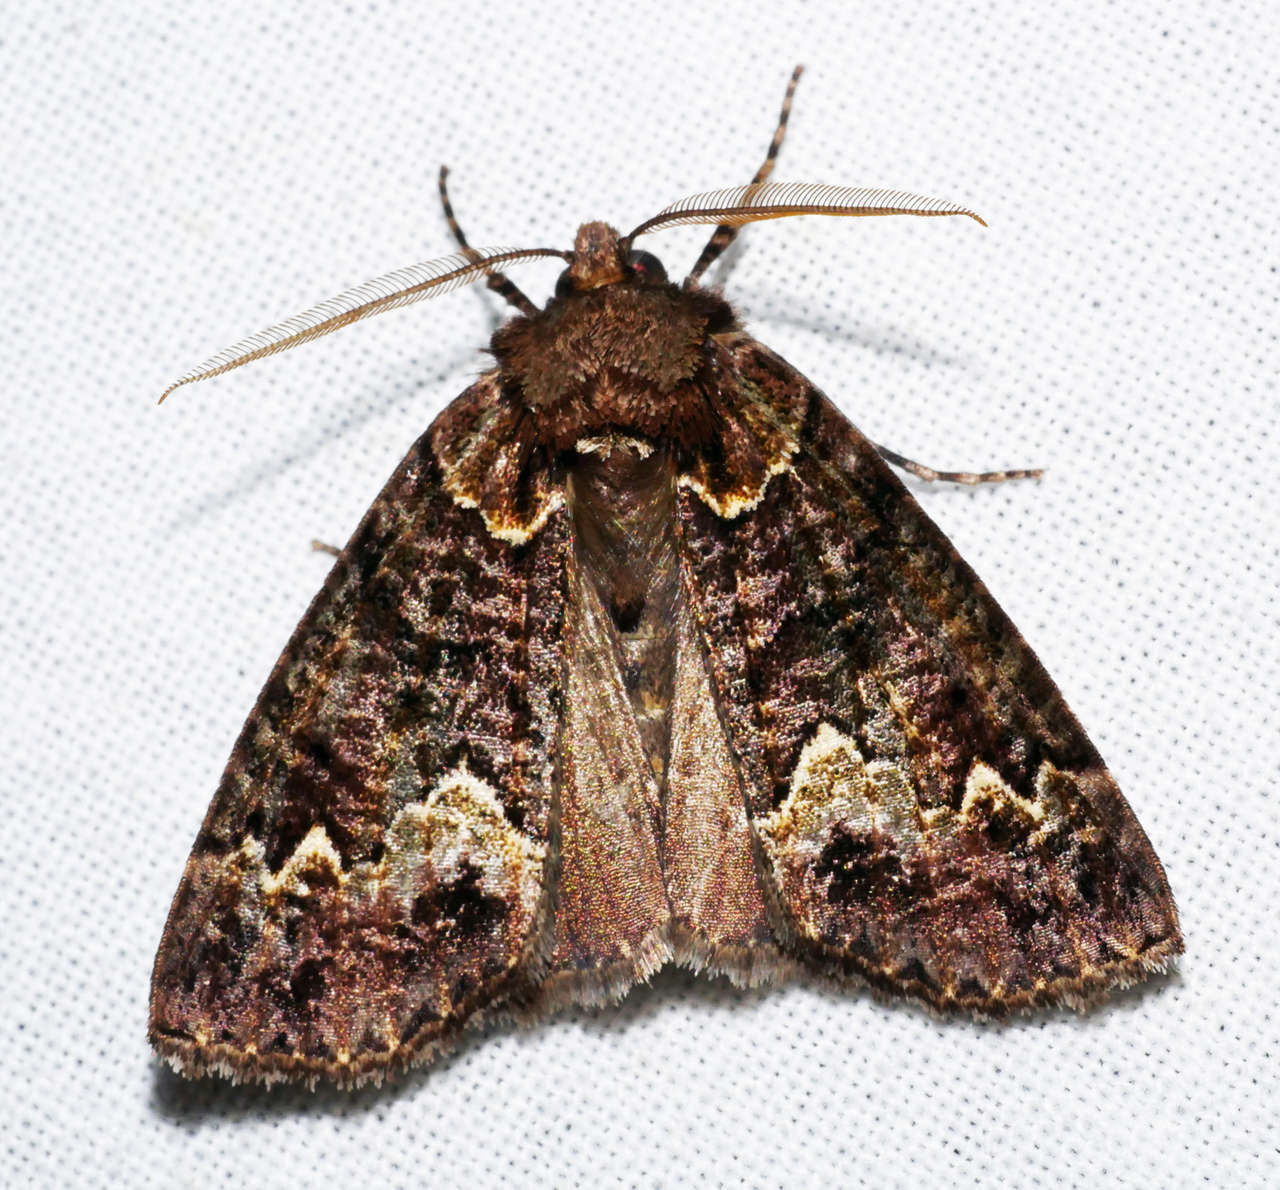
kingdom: Animalia
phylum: Arthropoda
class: Insecta
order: Lepidoptera
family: Geometridae
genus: Chlenias
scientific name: Chlenias ochrocrana
